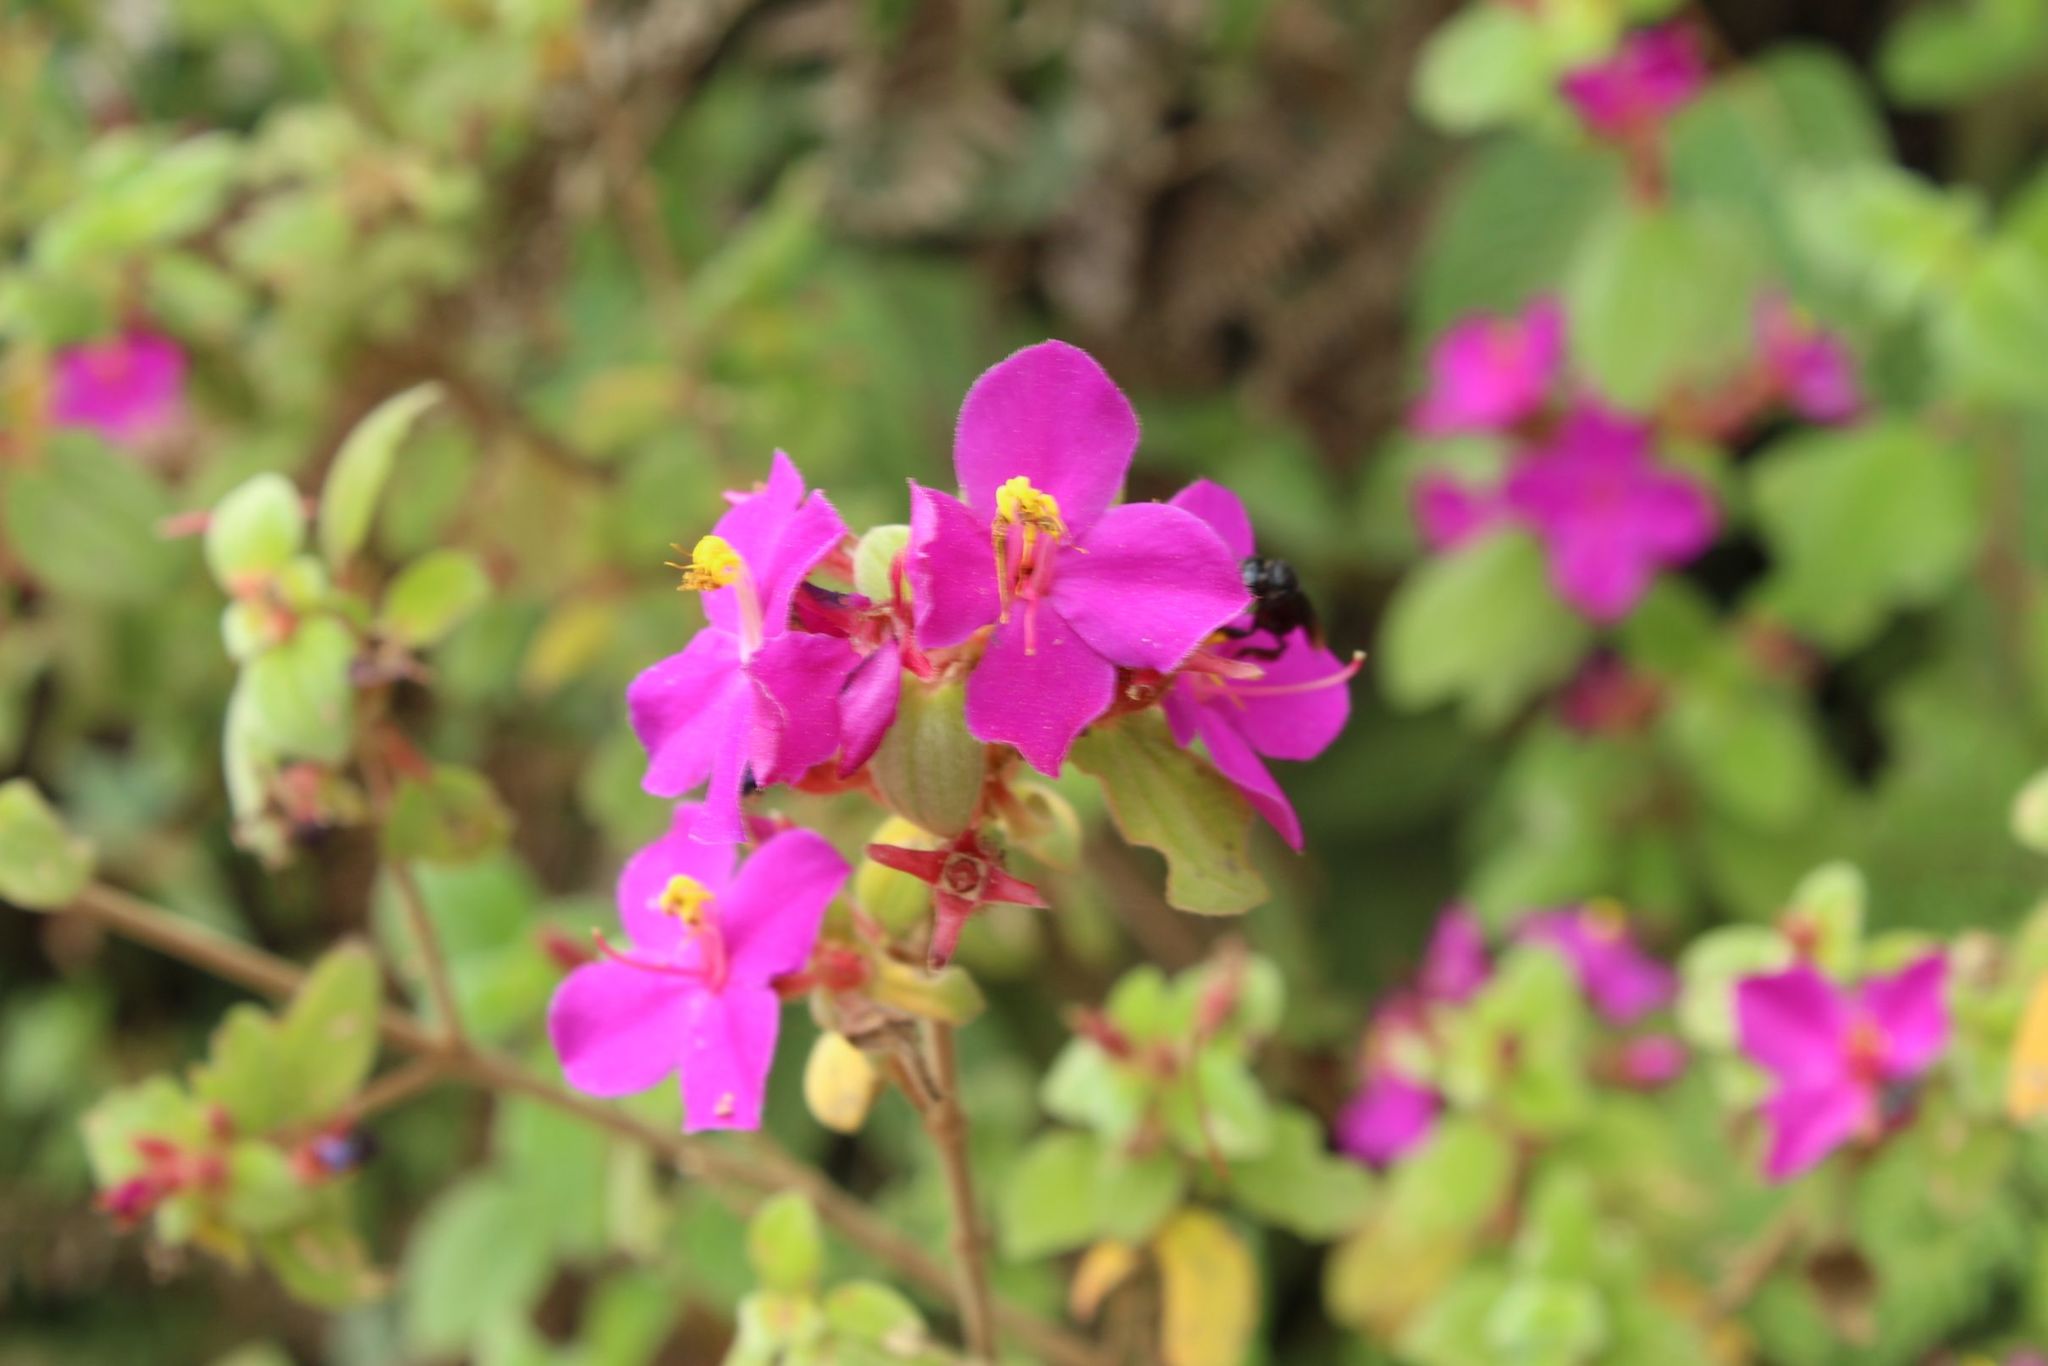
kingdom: Plantae
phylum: Tracheophyta
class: Magnoliopsida
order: Myrtales
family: Melastomataceae
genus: Monochaetum
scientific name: Monochaetum bonplandii
